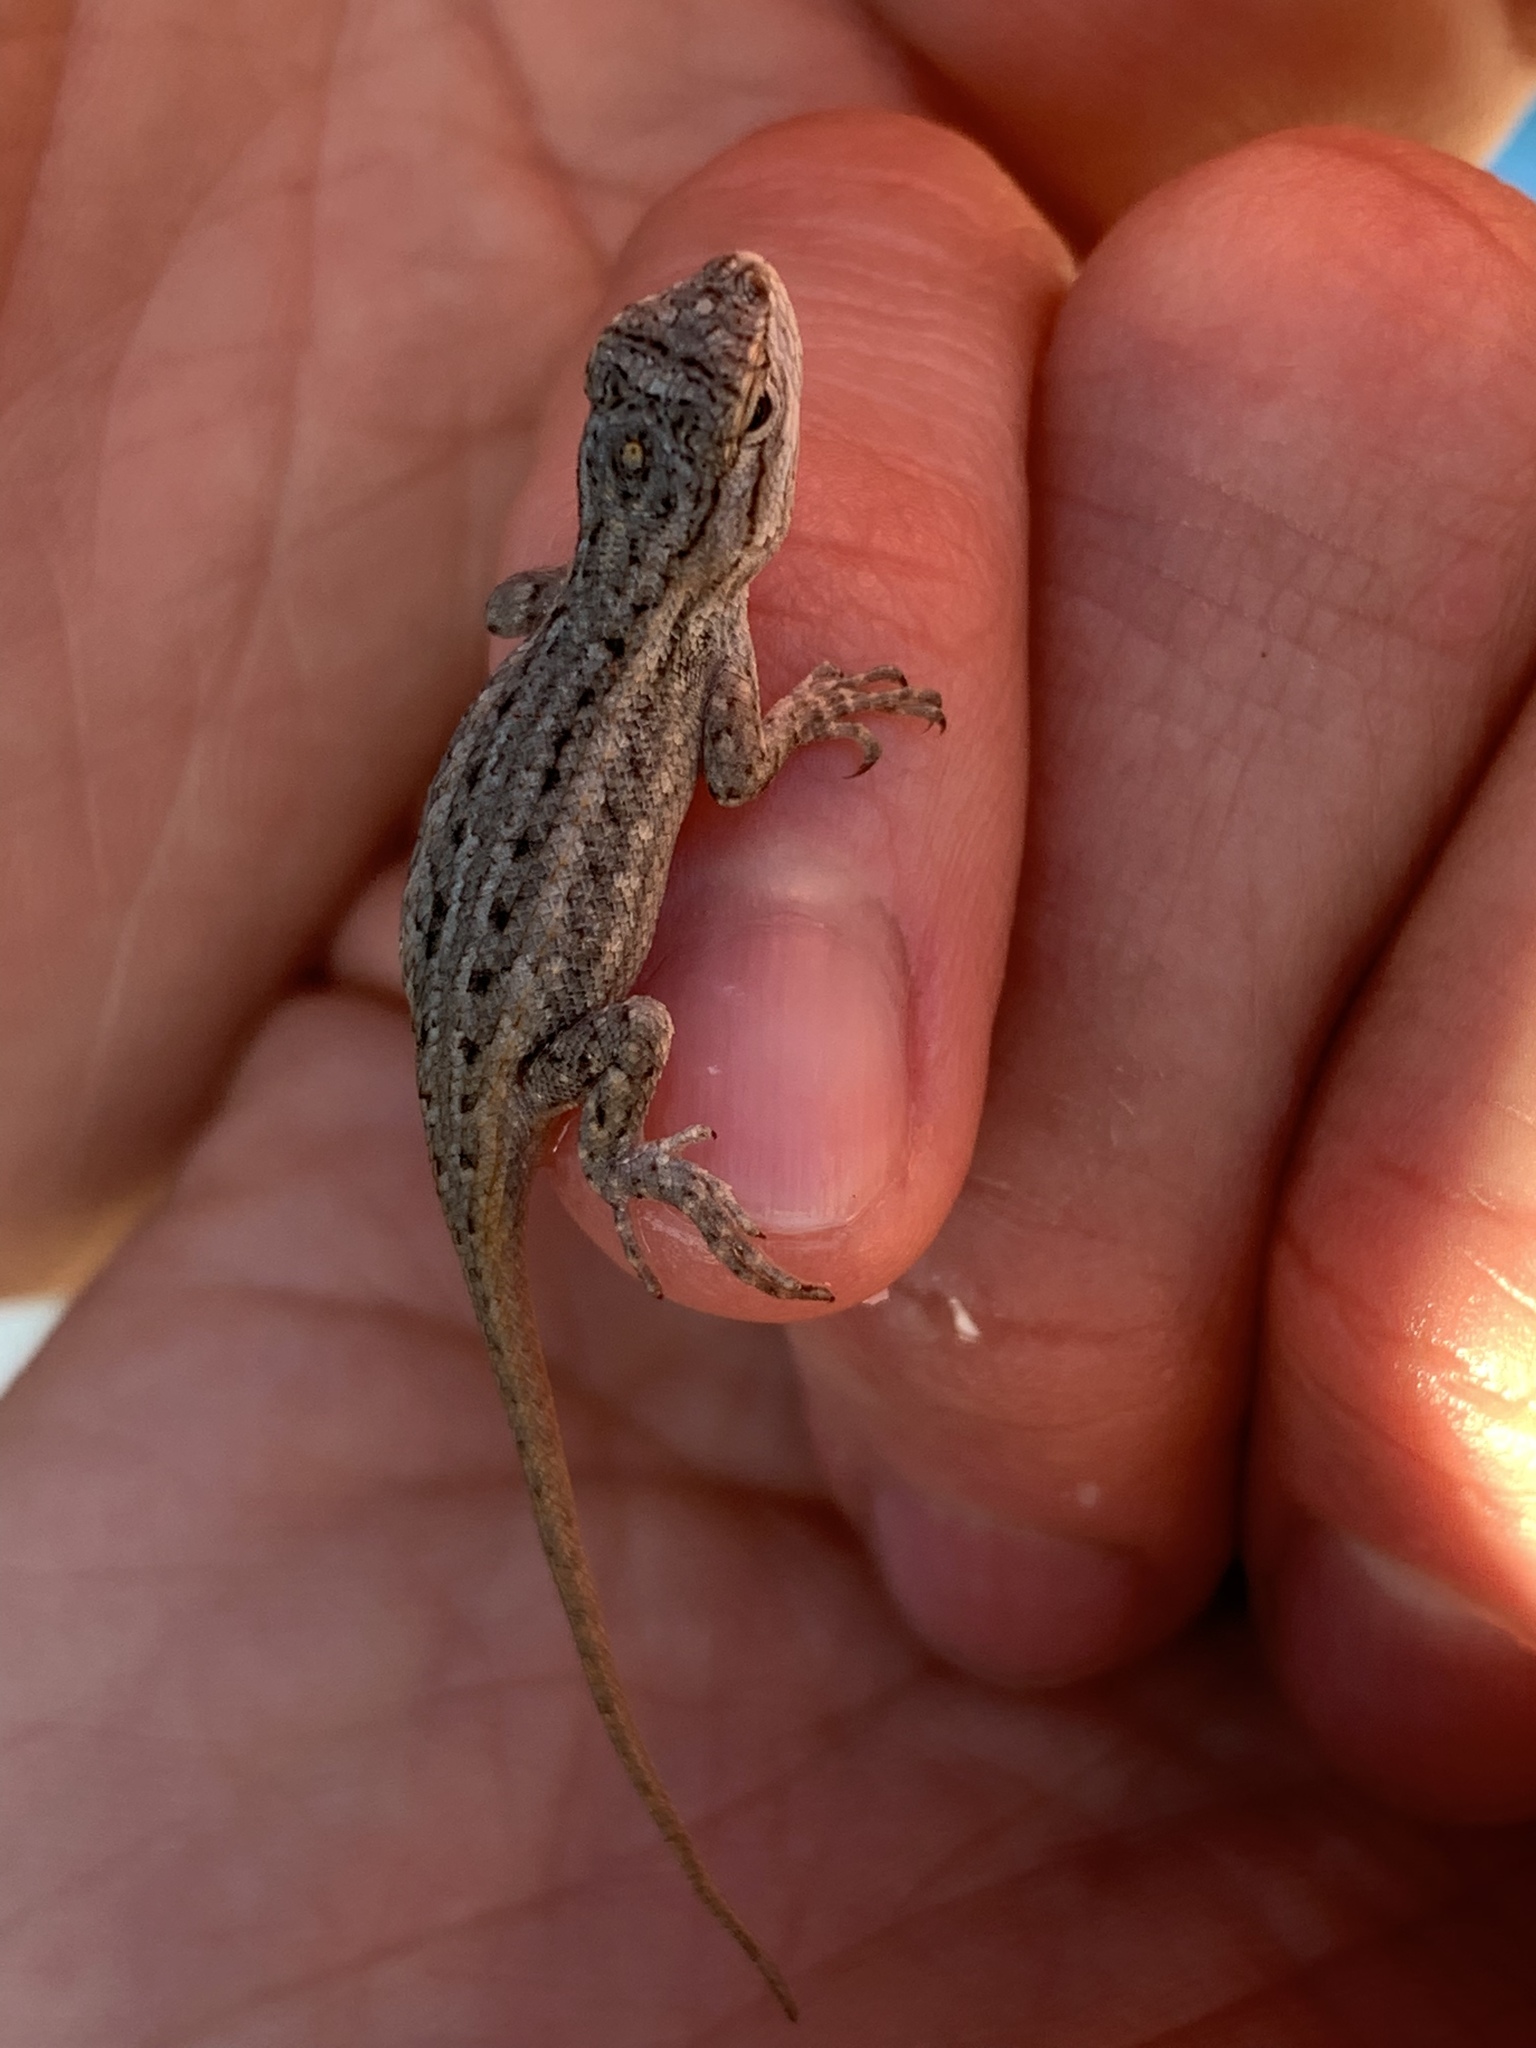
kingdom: Animalia
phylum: Chordata
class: Squamata
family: Phrynosomatidae
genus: Sceloporus
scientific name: Sceloporus cowlesi
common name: White sands prairie lizard
